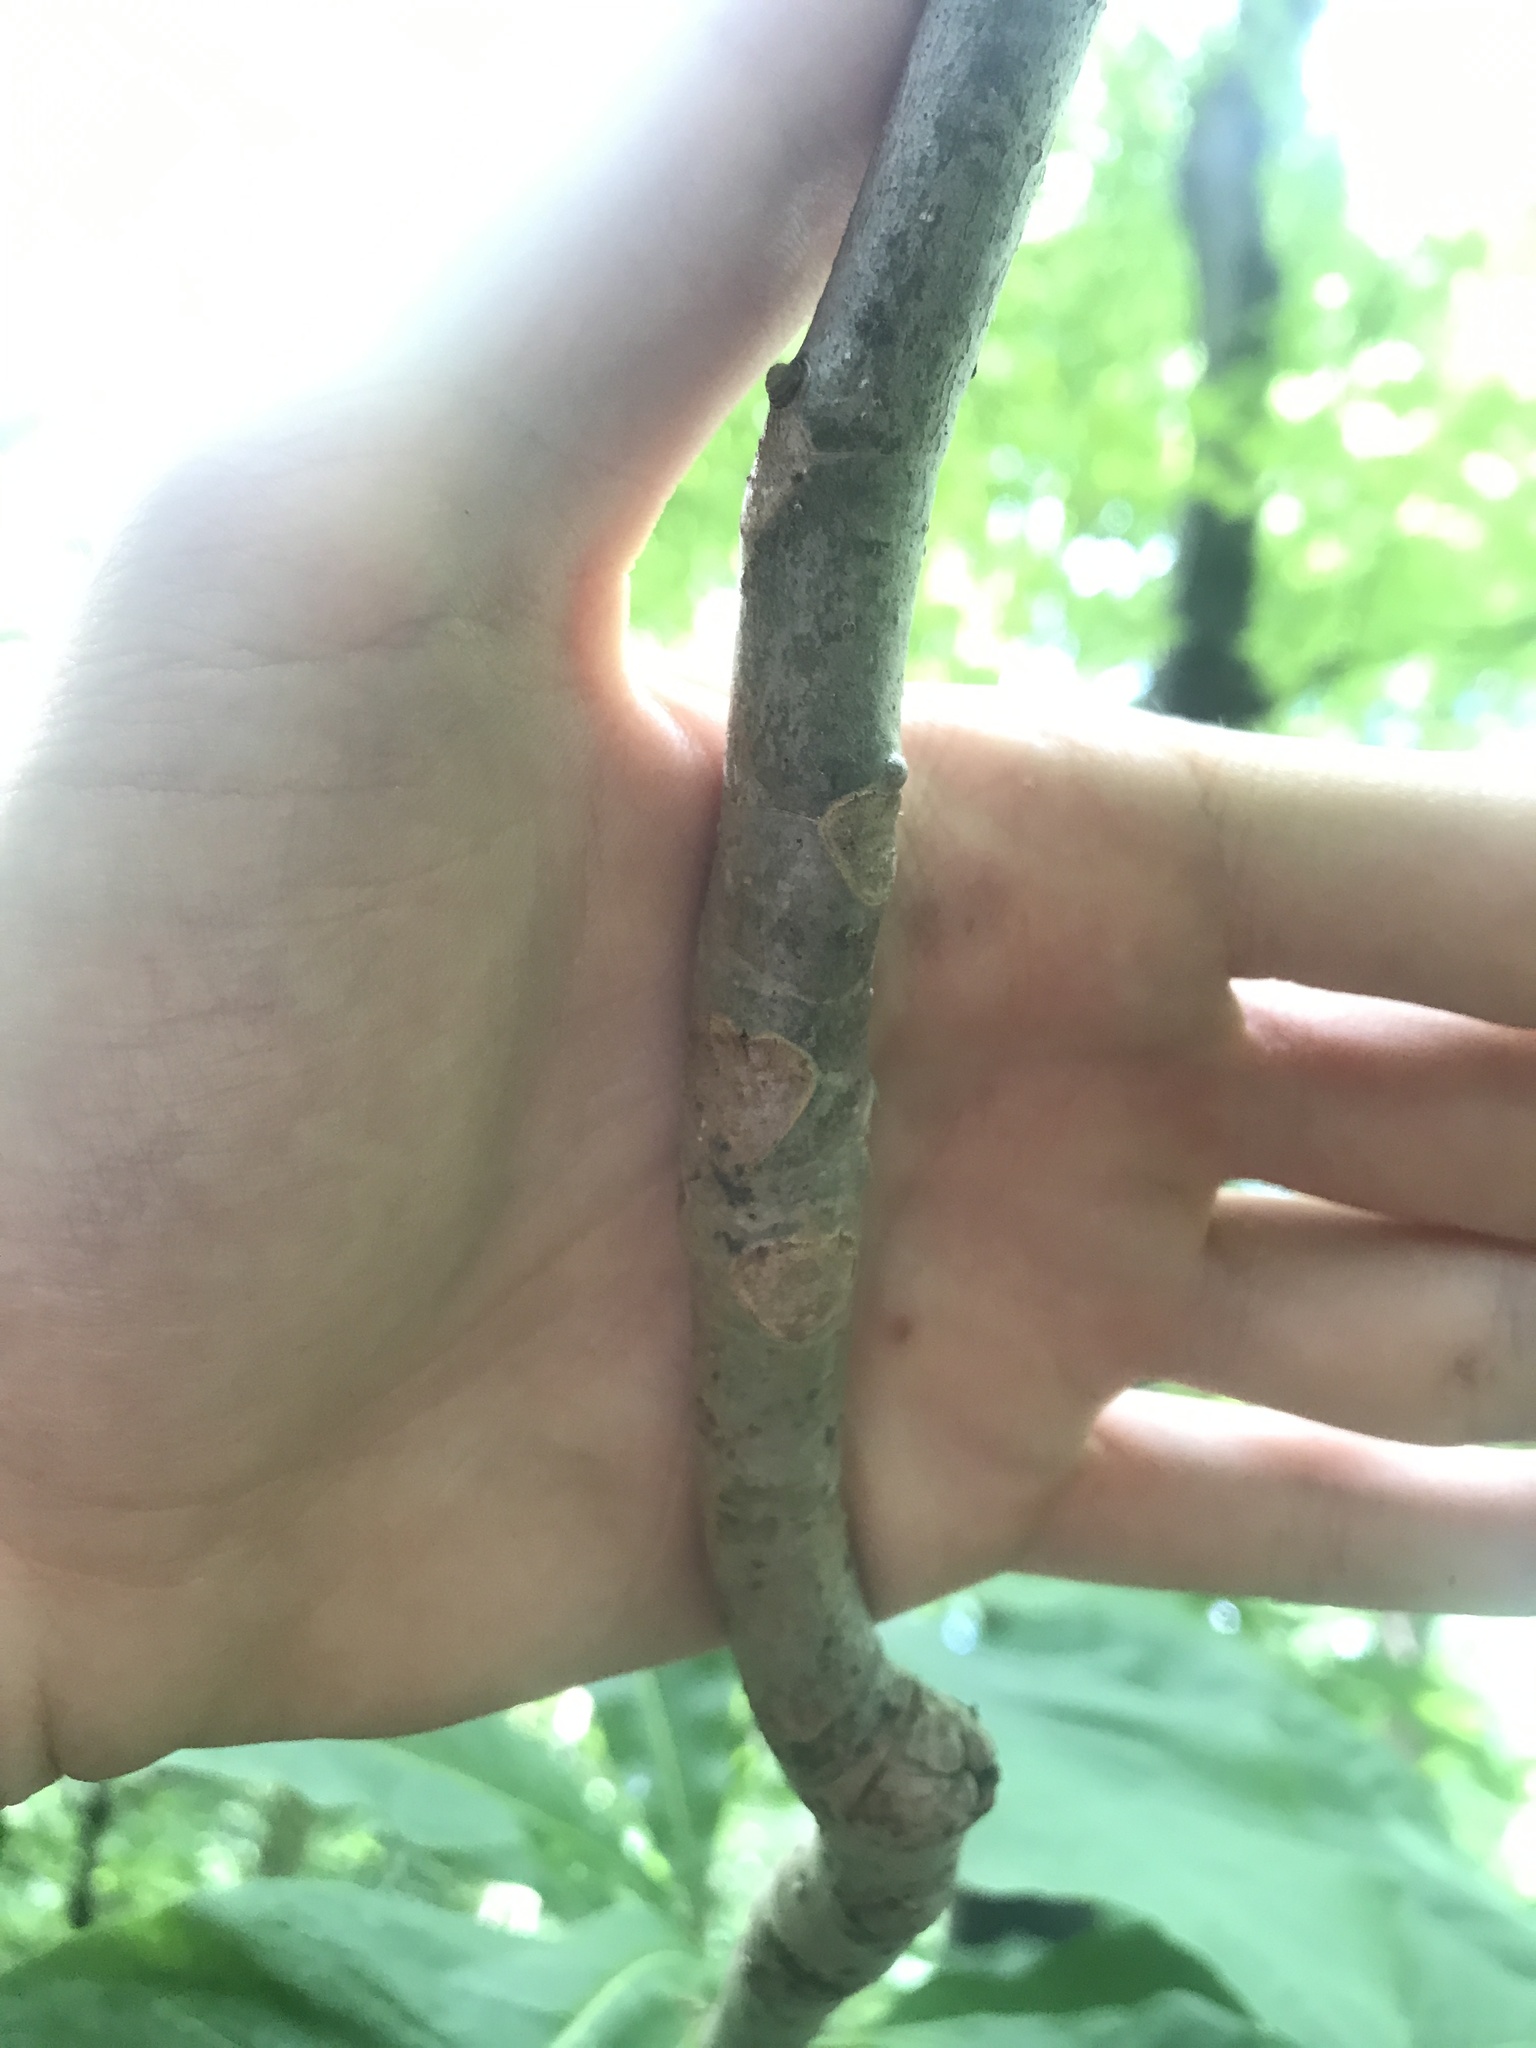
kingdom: Plantae
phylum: Tracheophyta
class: Magnoliopsida
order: Magnoliales
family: Magnoliaceae
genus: Magnolia
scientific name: Magnolia tripetala
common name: Umbrella magnolia
